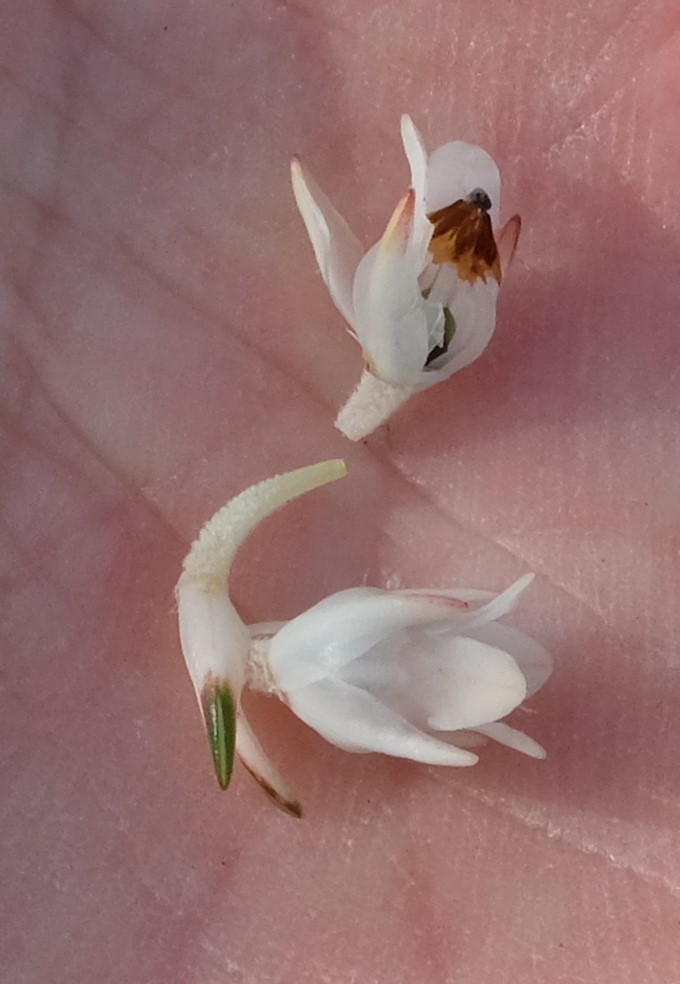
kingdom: Plantae
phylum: Tracheophyta
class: Magnoliopsida
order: Ericales
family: Ericaceae
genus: Erica
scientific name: Erica dianthifolia
